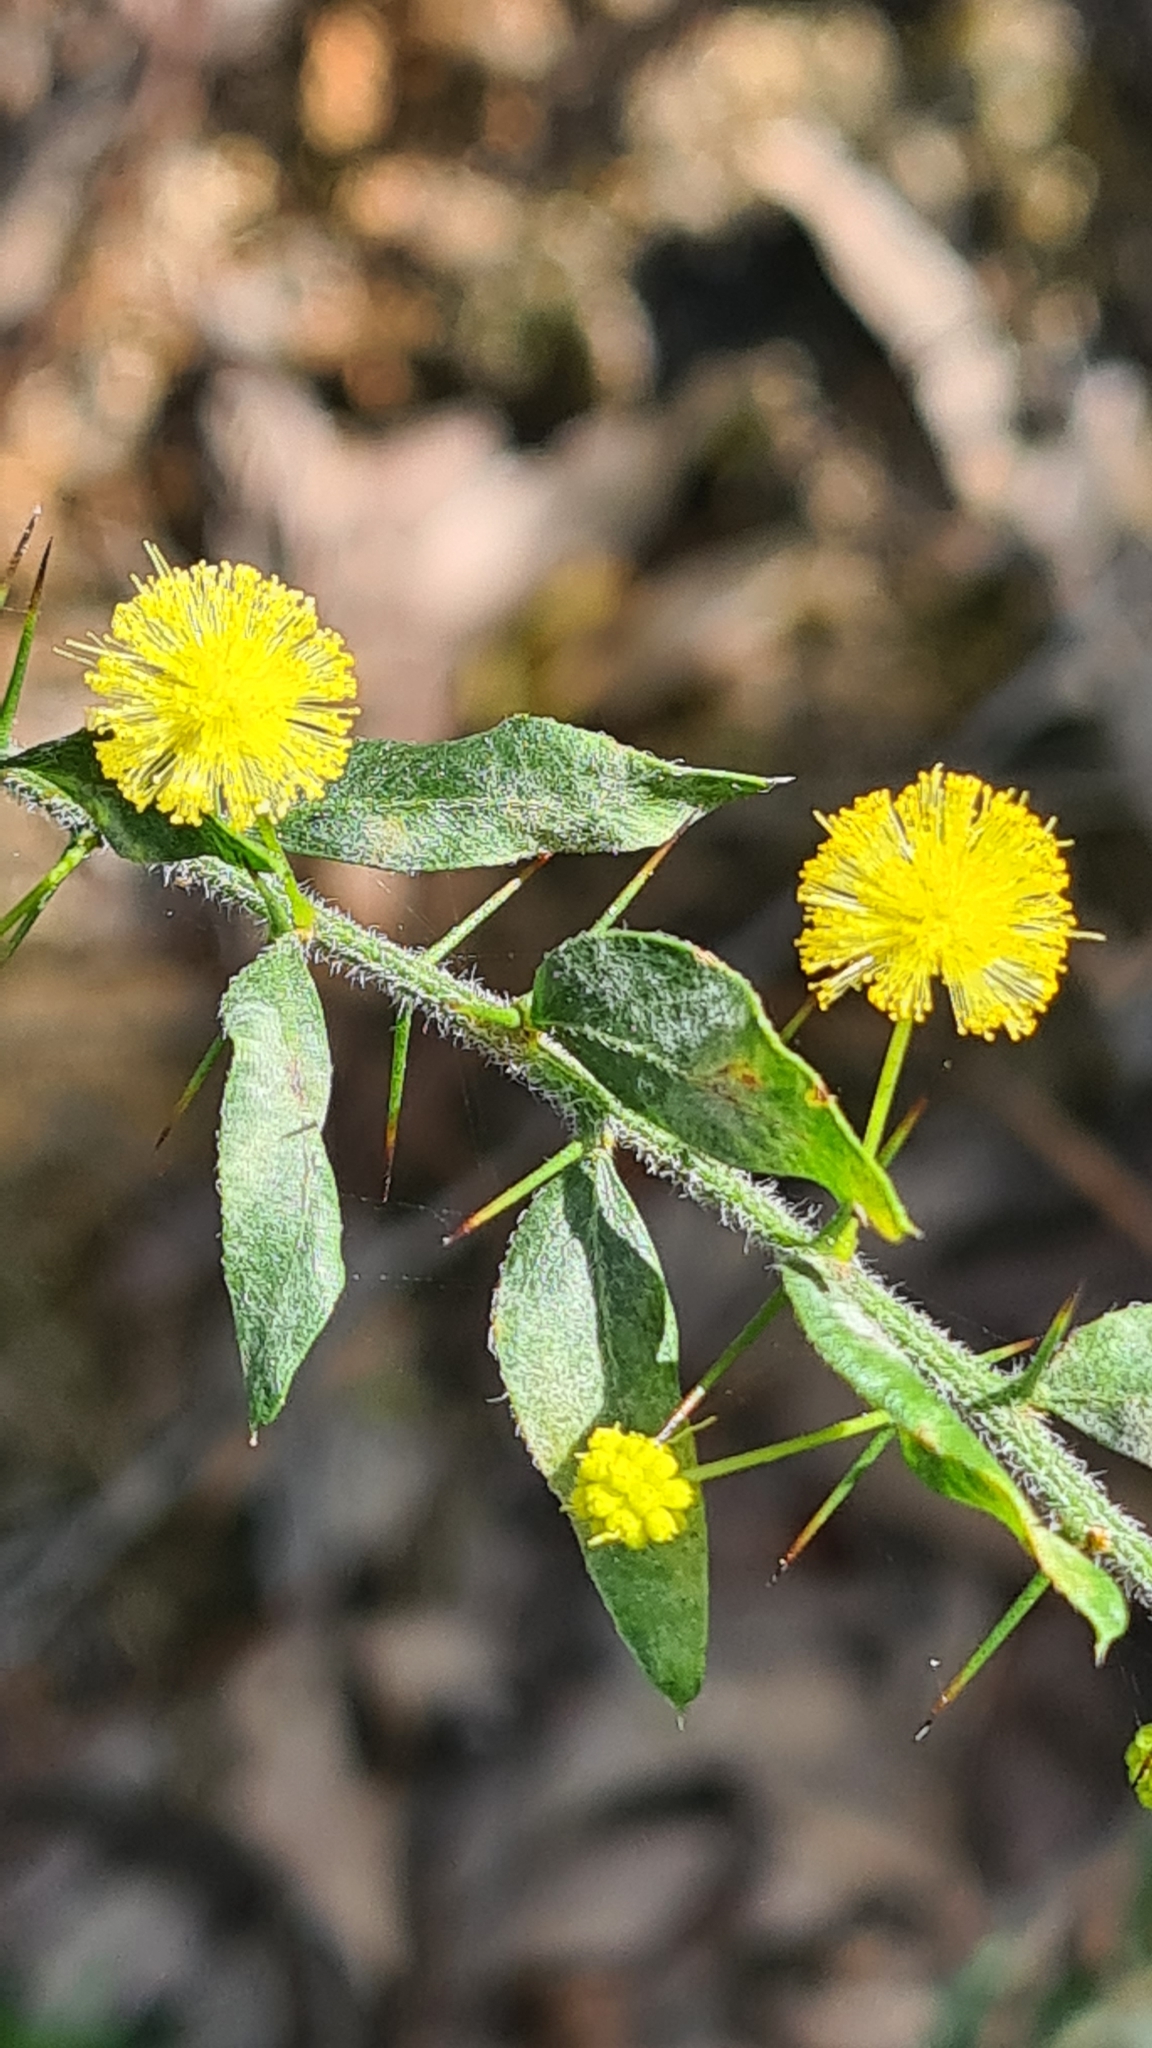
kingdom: Plantae
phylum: Tracheophyta
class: Magnoliopsida
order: Fabales
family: Fabaceae
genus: Acacia
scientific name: Acacia paradoxa
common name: Paradox acacia
